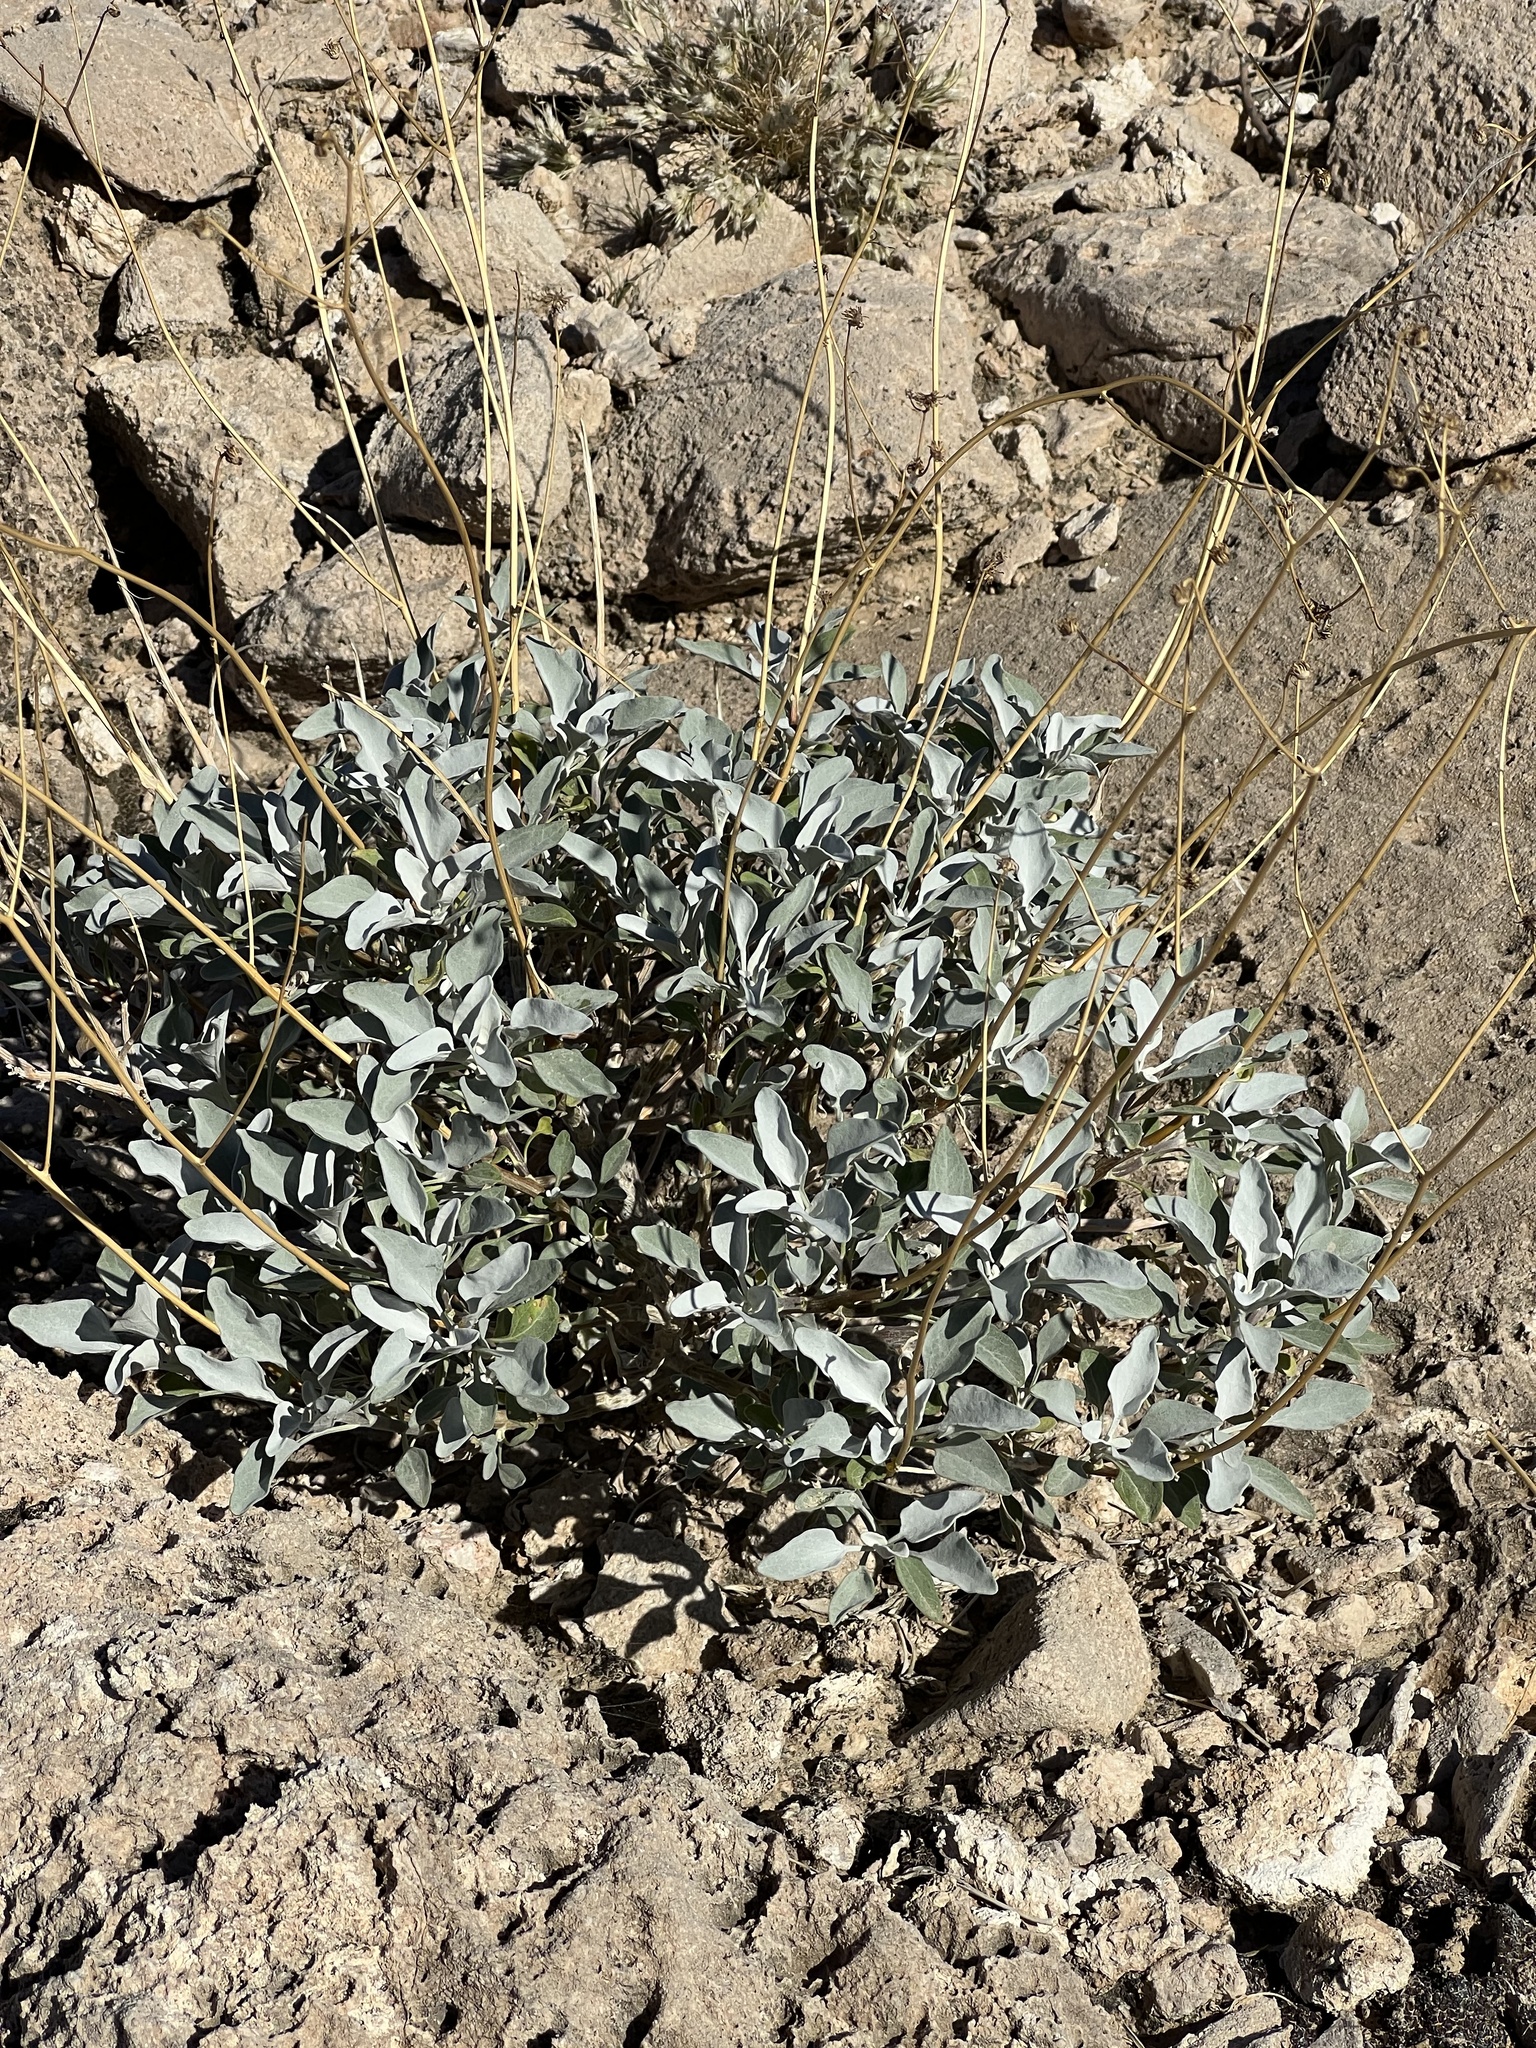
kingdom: Plantae
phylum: Tracheophyta
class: Magnoliopsida
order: Asterales
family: Asteraceae
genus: Encelia
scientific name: Encelia farinosa
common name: Brittlebush
